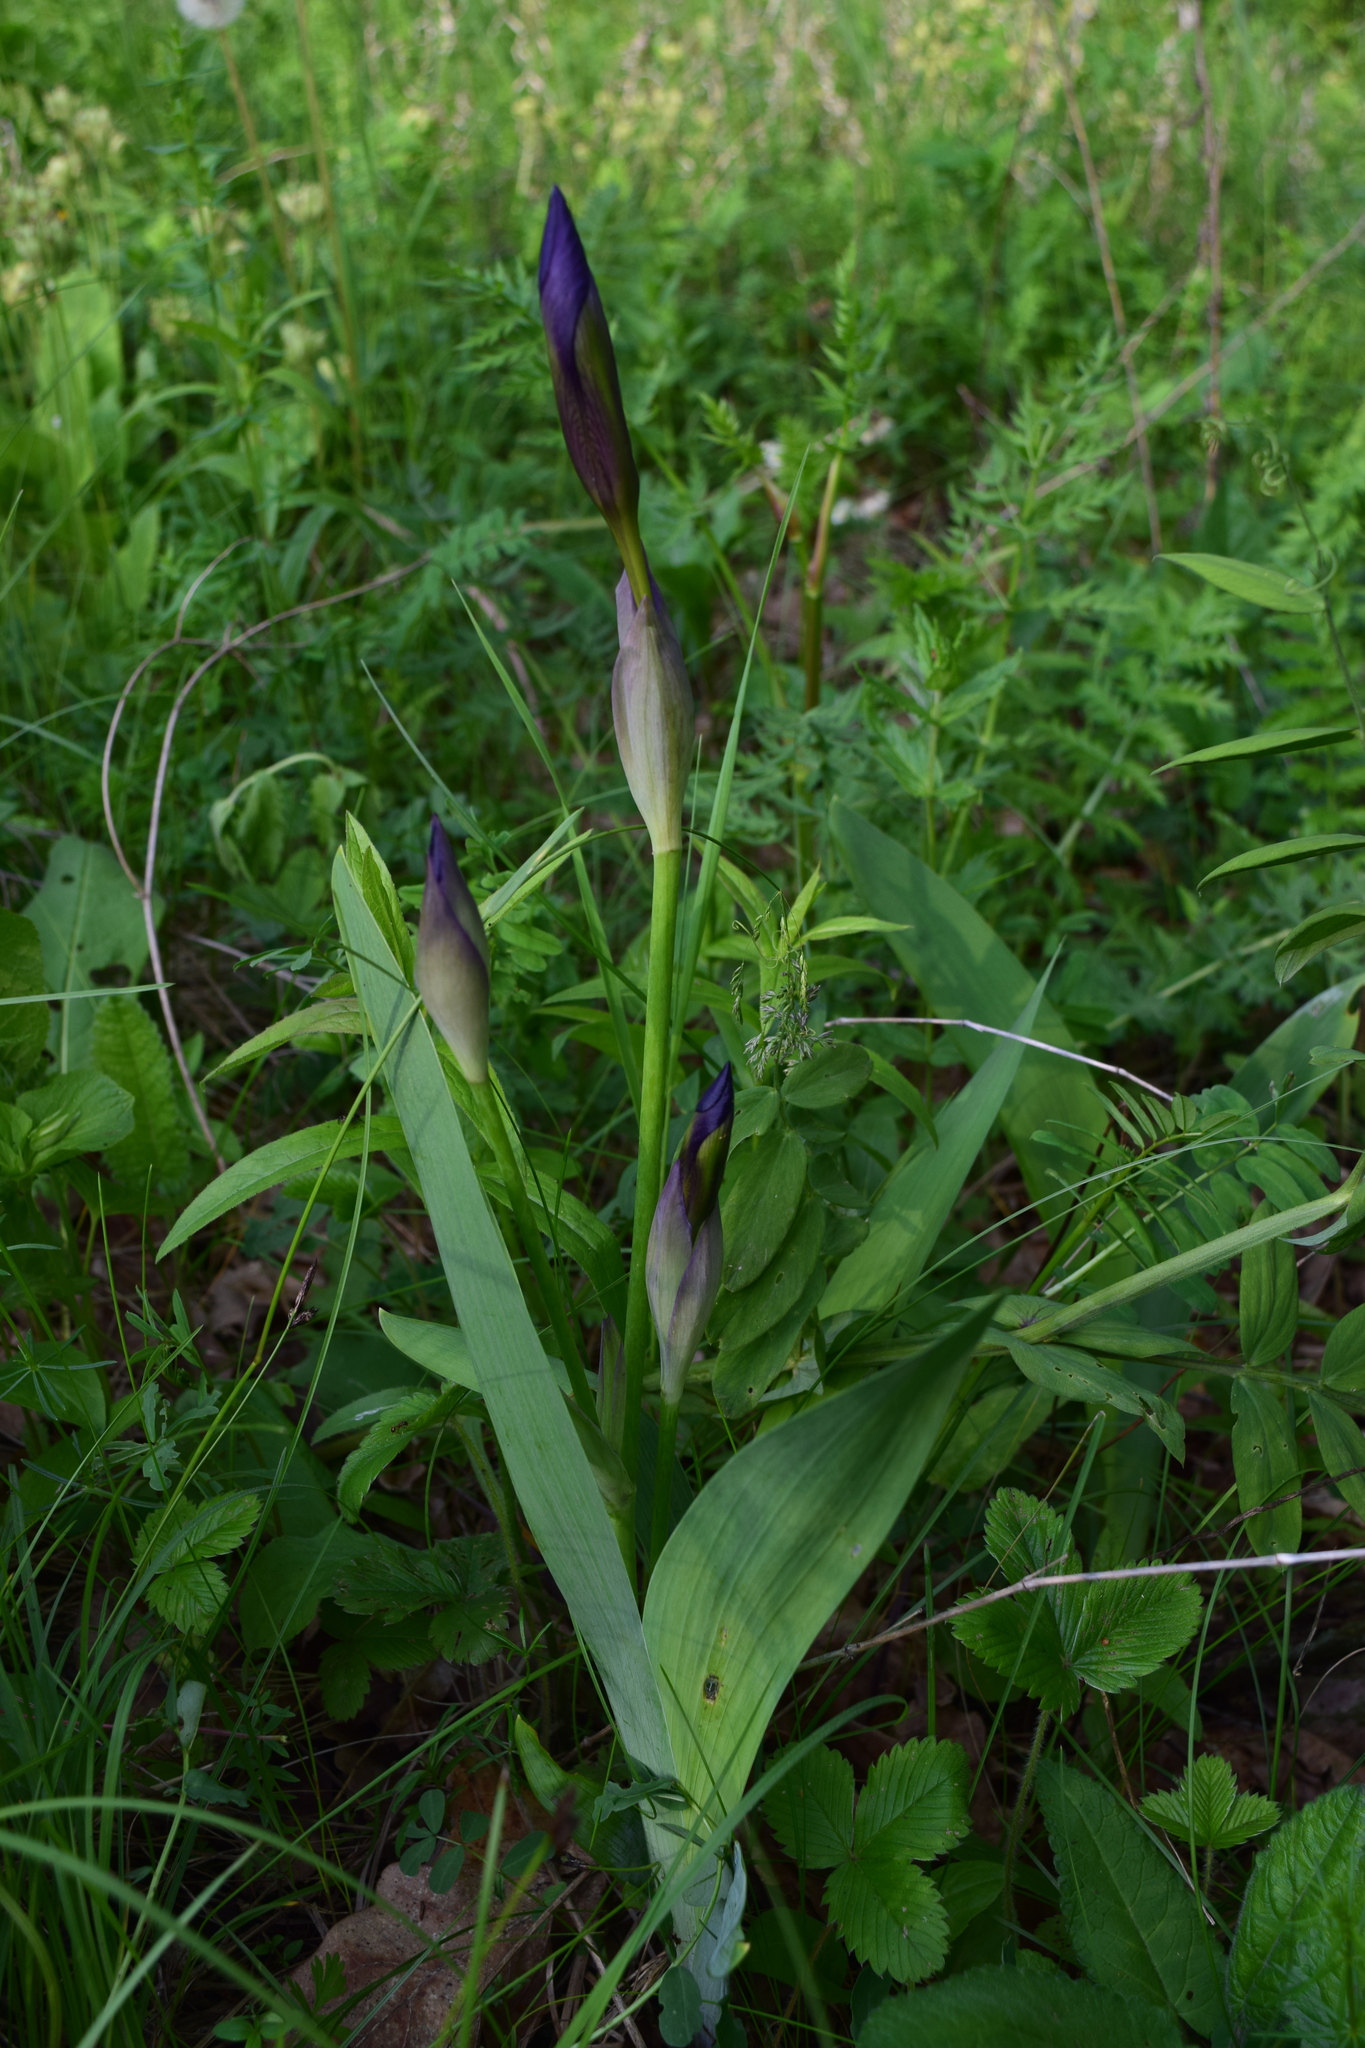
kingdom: Plantae
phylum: Tracheophyta
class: Liliopsida
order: Asparagales
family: Iridaceae
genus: Iris
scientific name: Iris aphylla
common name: Stool iris
